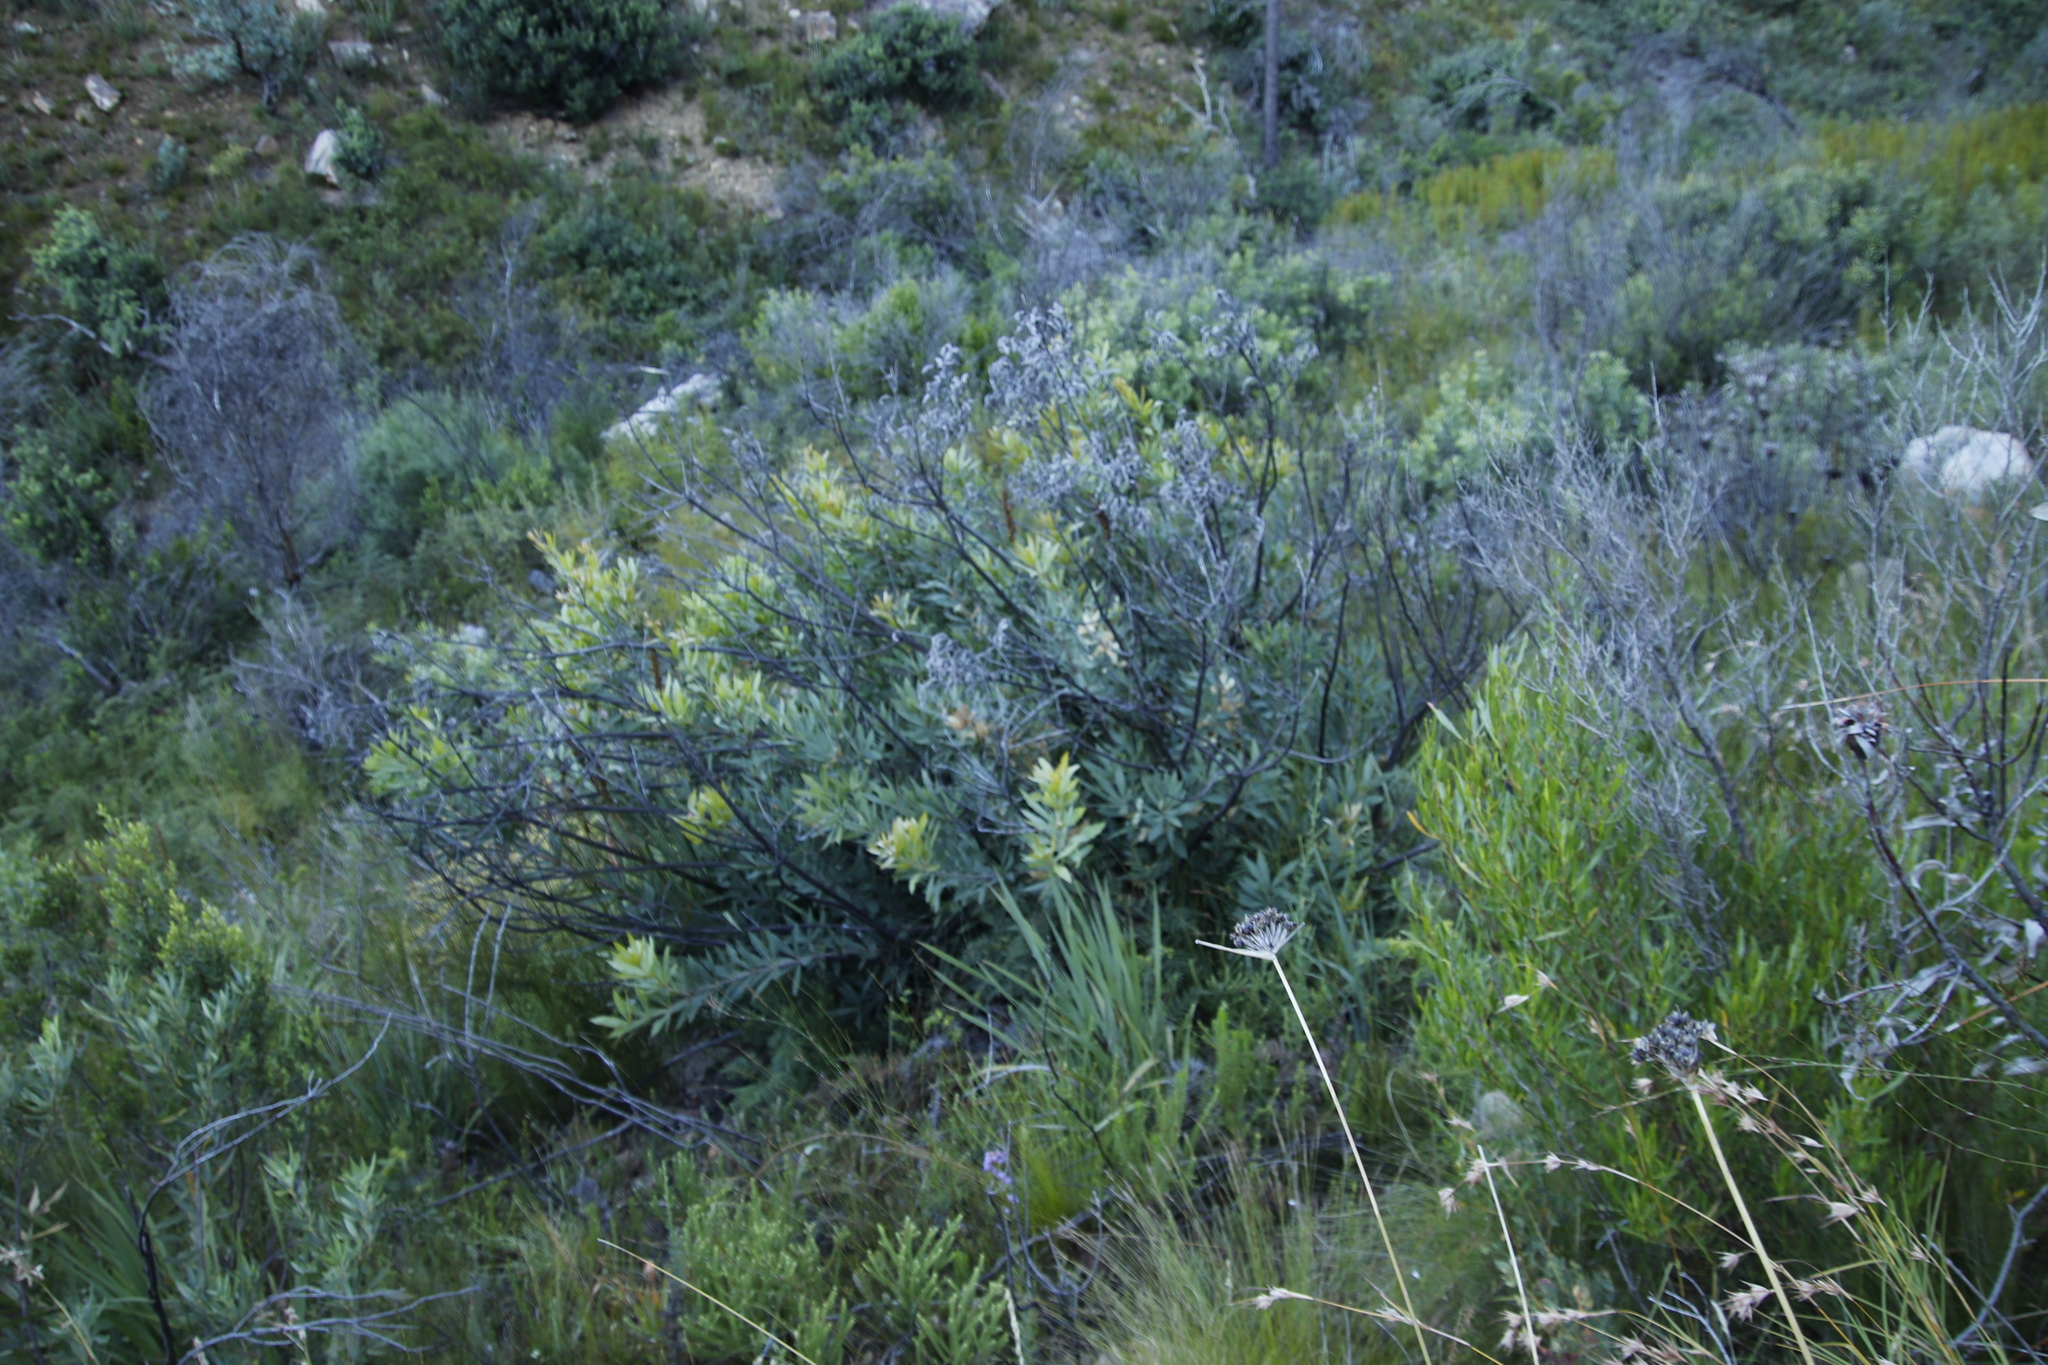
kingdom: Plantae
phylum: Tracheophyta
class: Magnoliopsida
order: Proteales
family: Proteaceae
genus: Brabejum
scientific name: Brabejum stellatifolium
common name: Wild almond
